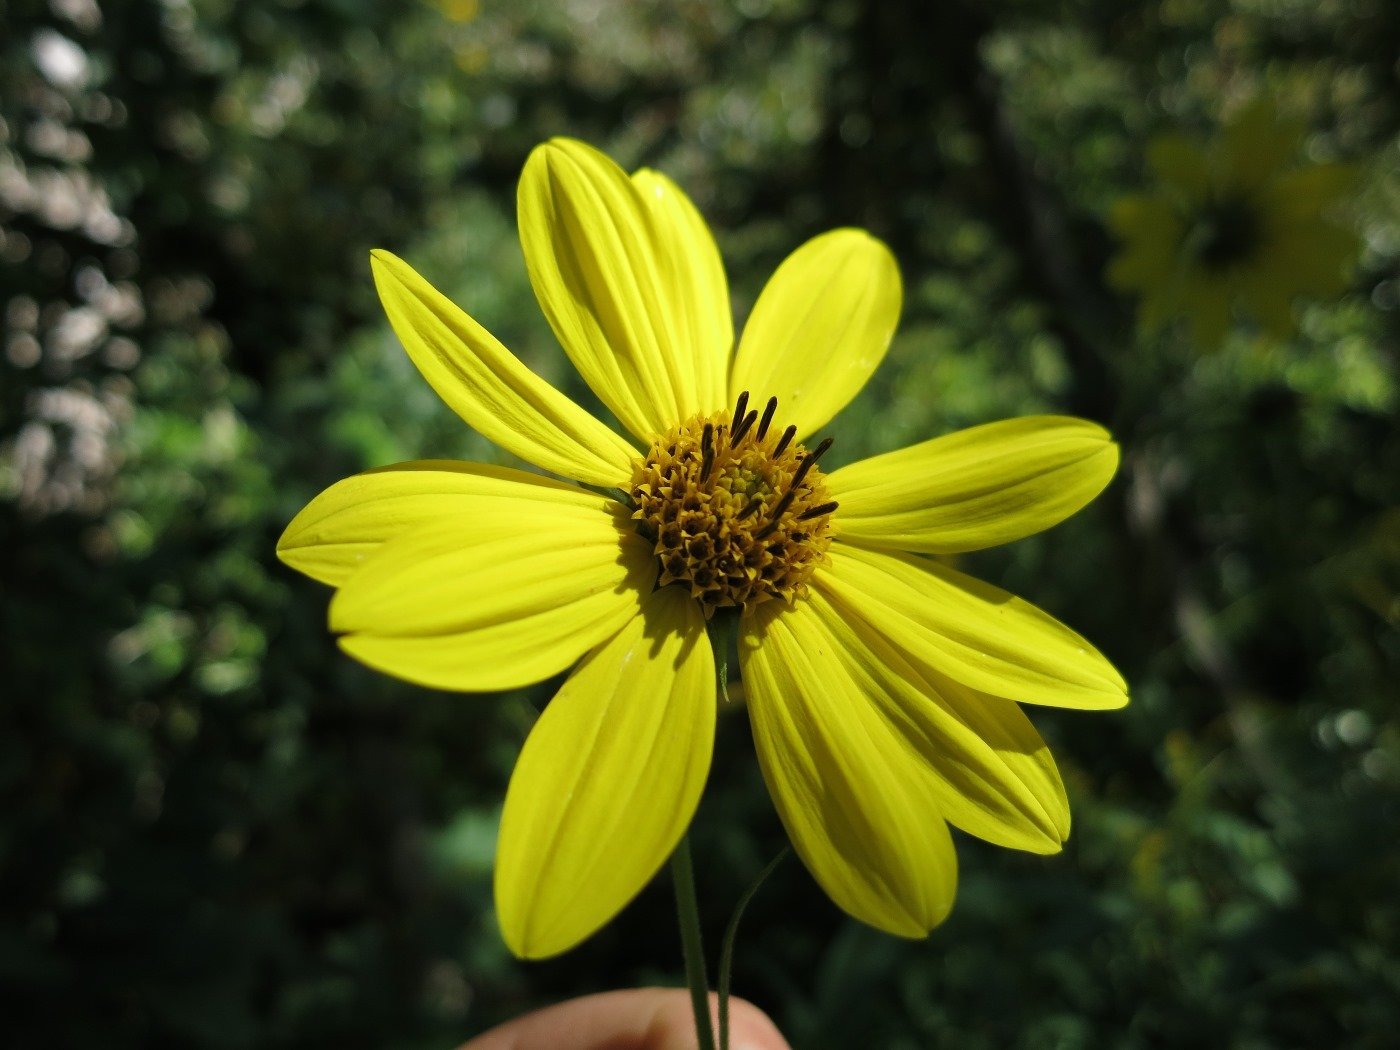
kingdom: Plantae
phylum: Tracheophyta
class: Magnoliopsida
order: Asterales
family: Asteraceae
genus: Helianthus
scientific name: Helianthus giganteus
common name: Giant sunflower
